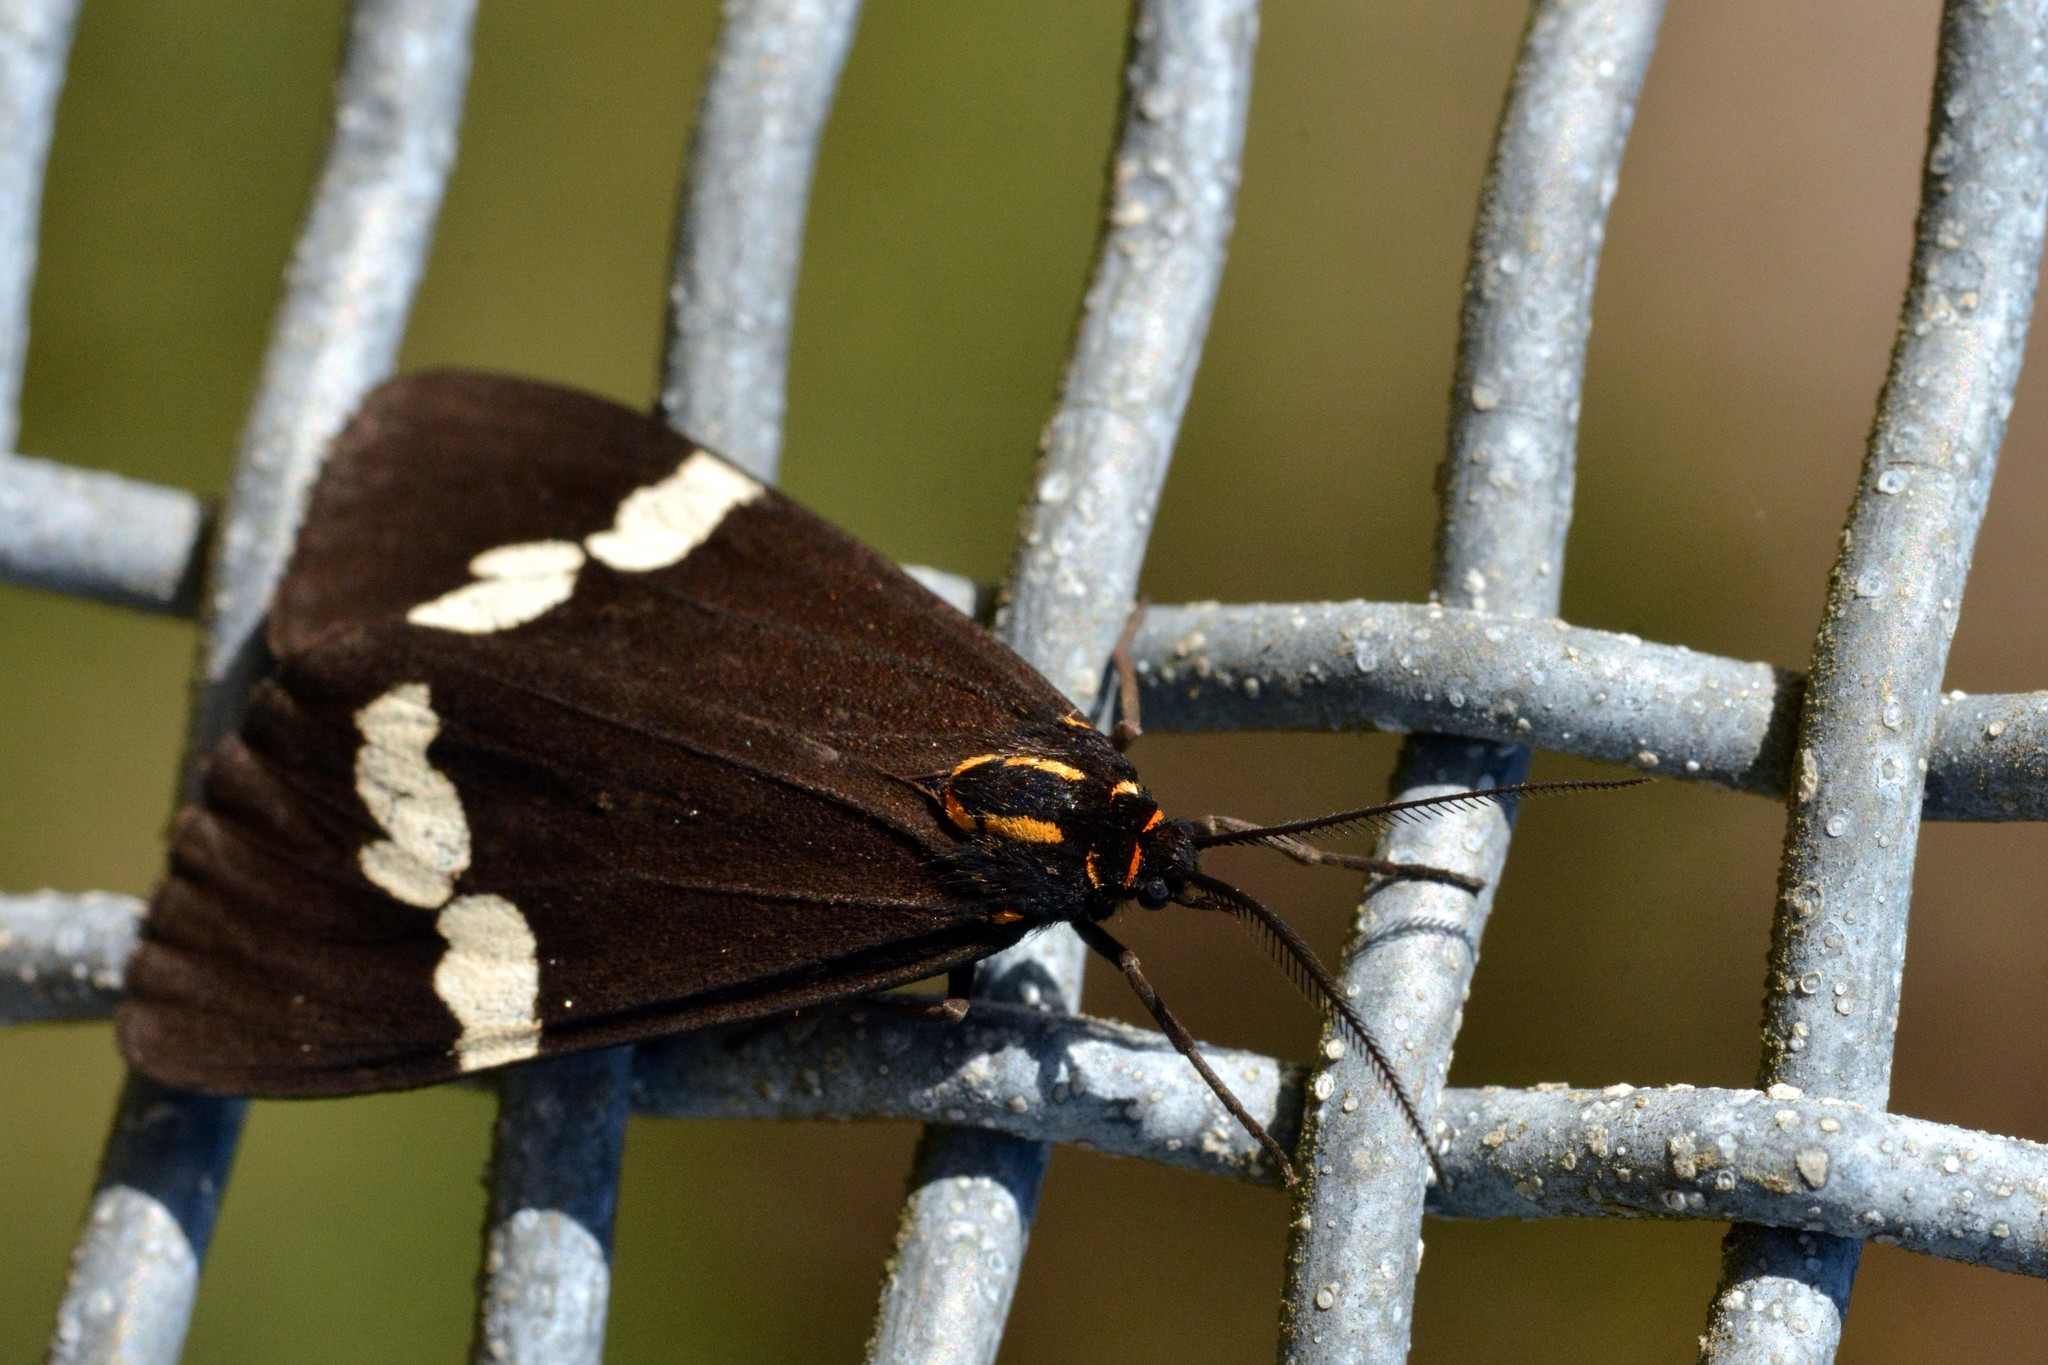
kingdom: Animalia
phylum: Arthropoda
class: Insecta
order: Lepidoptera
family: Erebidae
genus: Nyctemera
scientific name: Nyctemera annulatum
